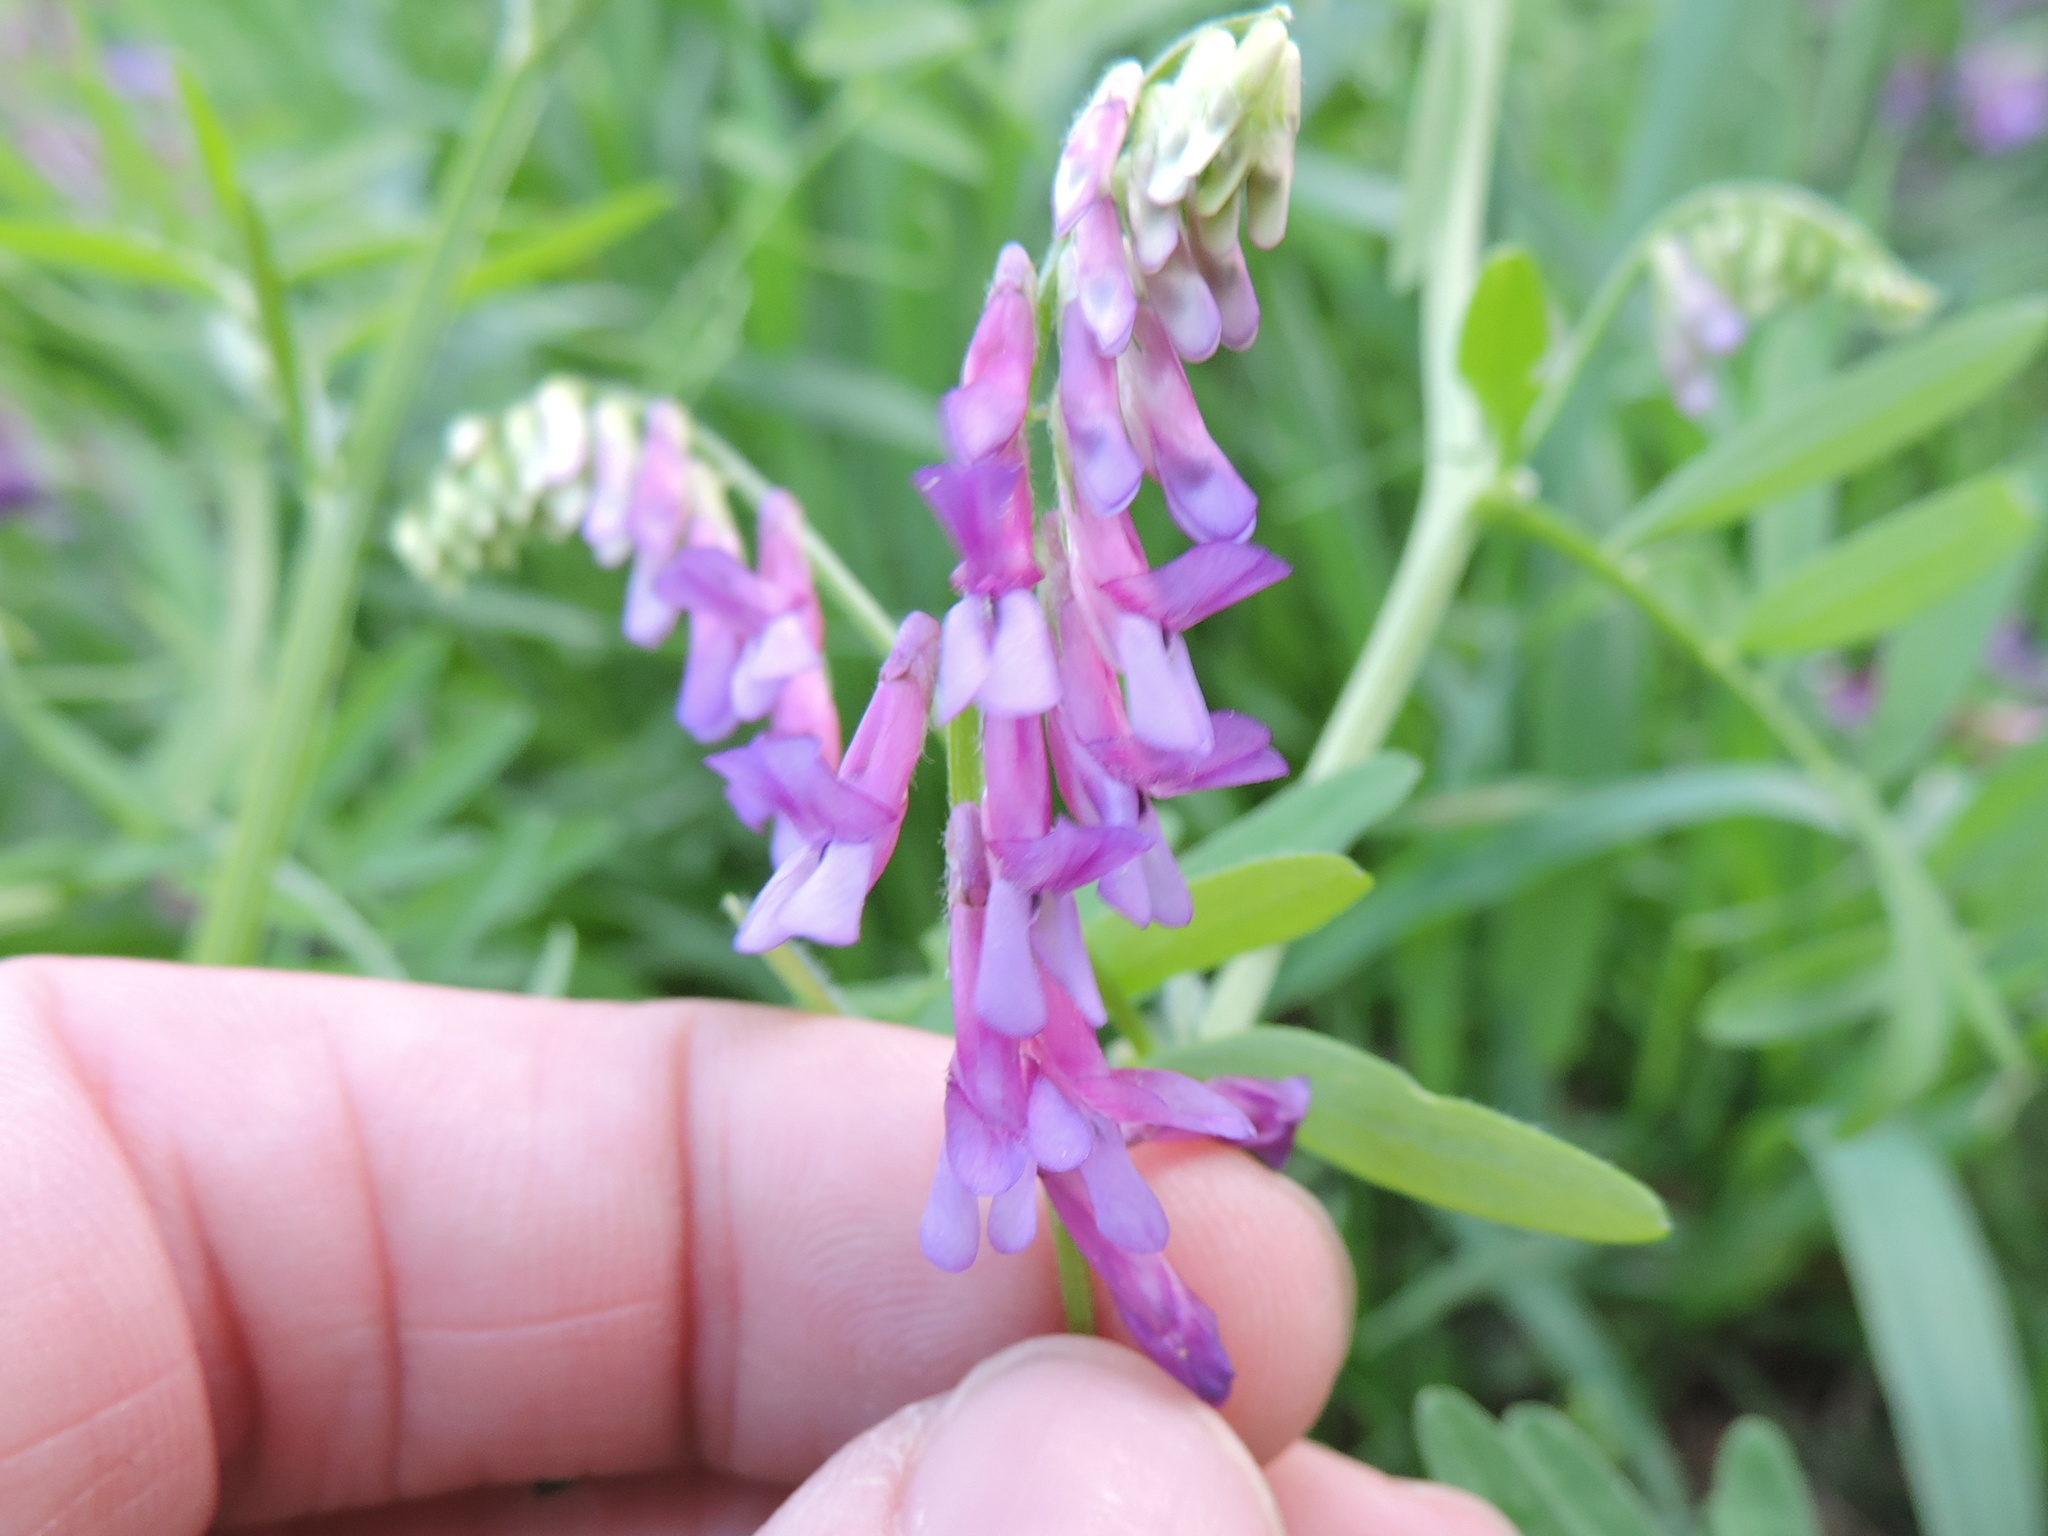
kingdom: Plantae
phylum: Tracheophyta
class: Magnoliopsida
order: Fabales
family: Fabaceae
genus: Vicia
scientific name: Vicia villosa
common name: Fodder vetch
